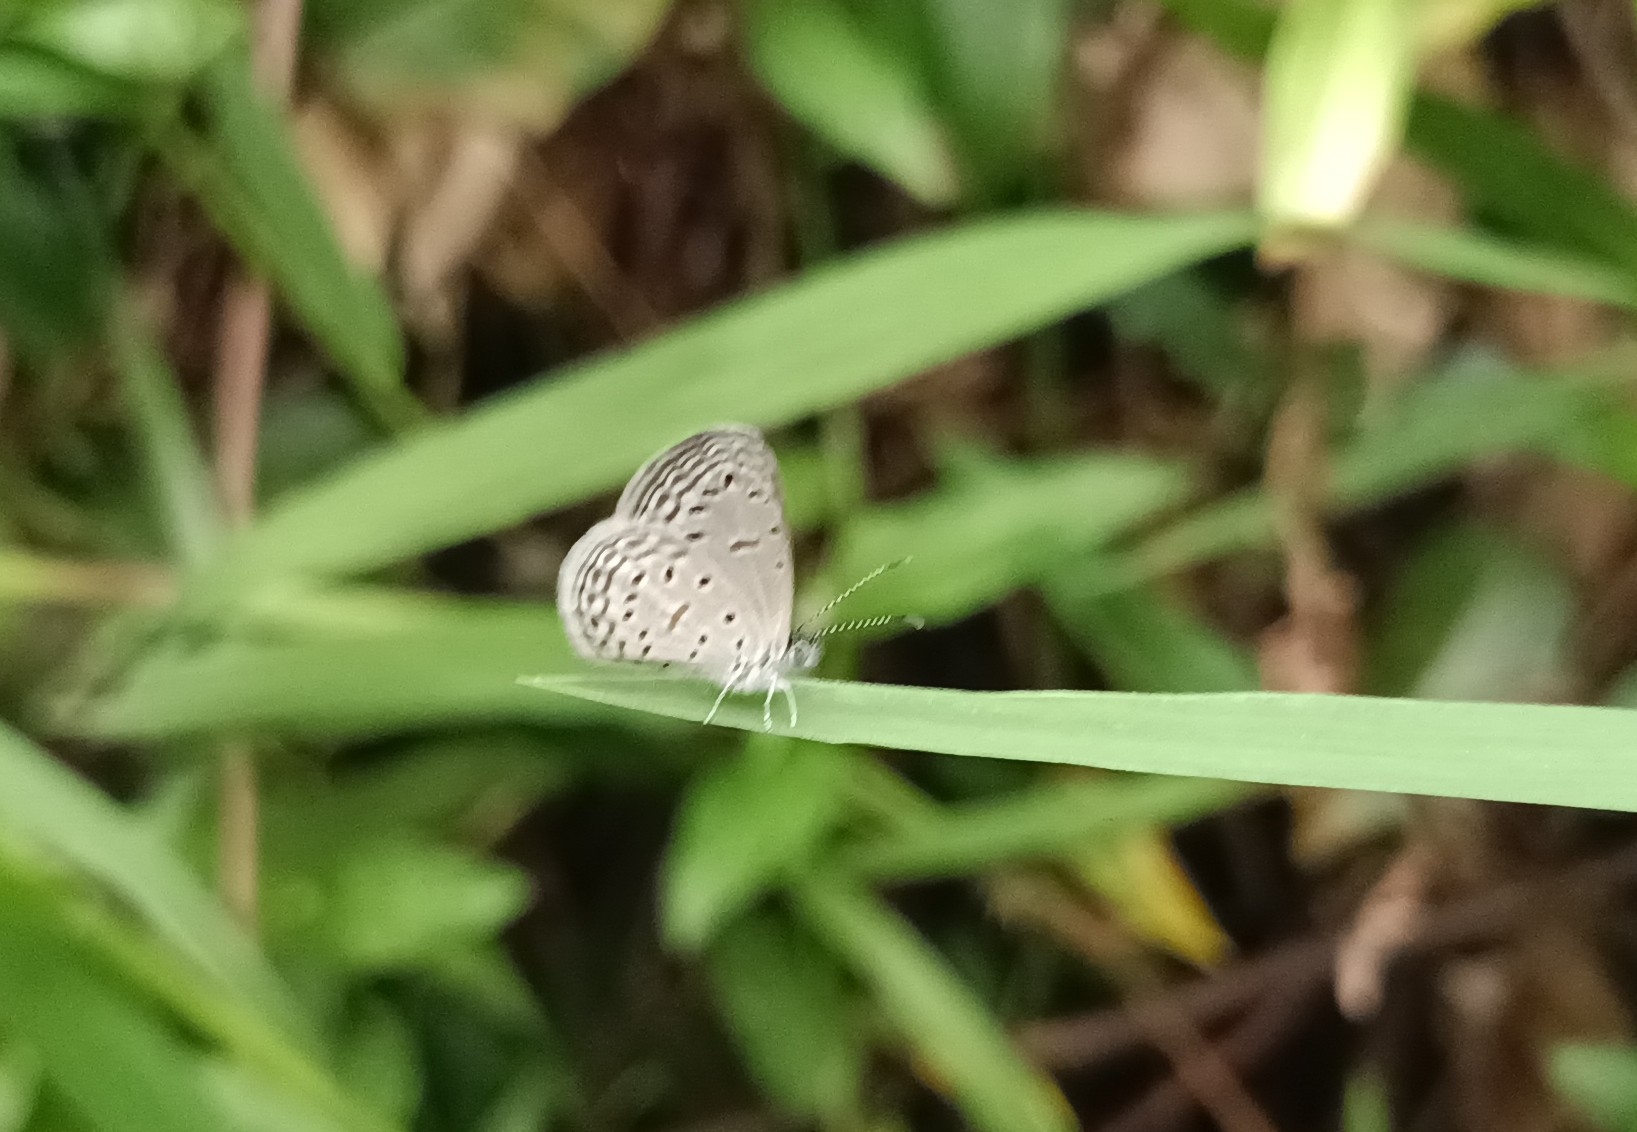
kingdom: Animalia
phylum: Arthropoda
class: Insecta
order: Lepidoptera
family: Lycaenidae
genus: Zizula
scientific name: Zizula hylax
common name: Gaika blue
